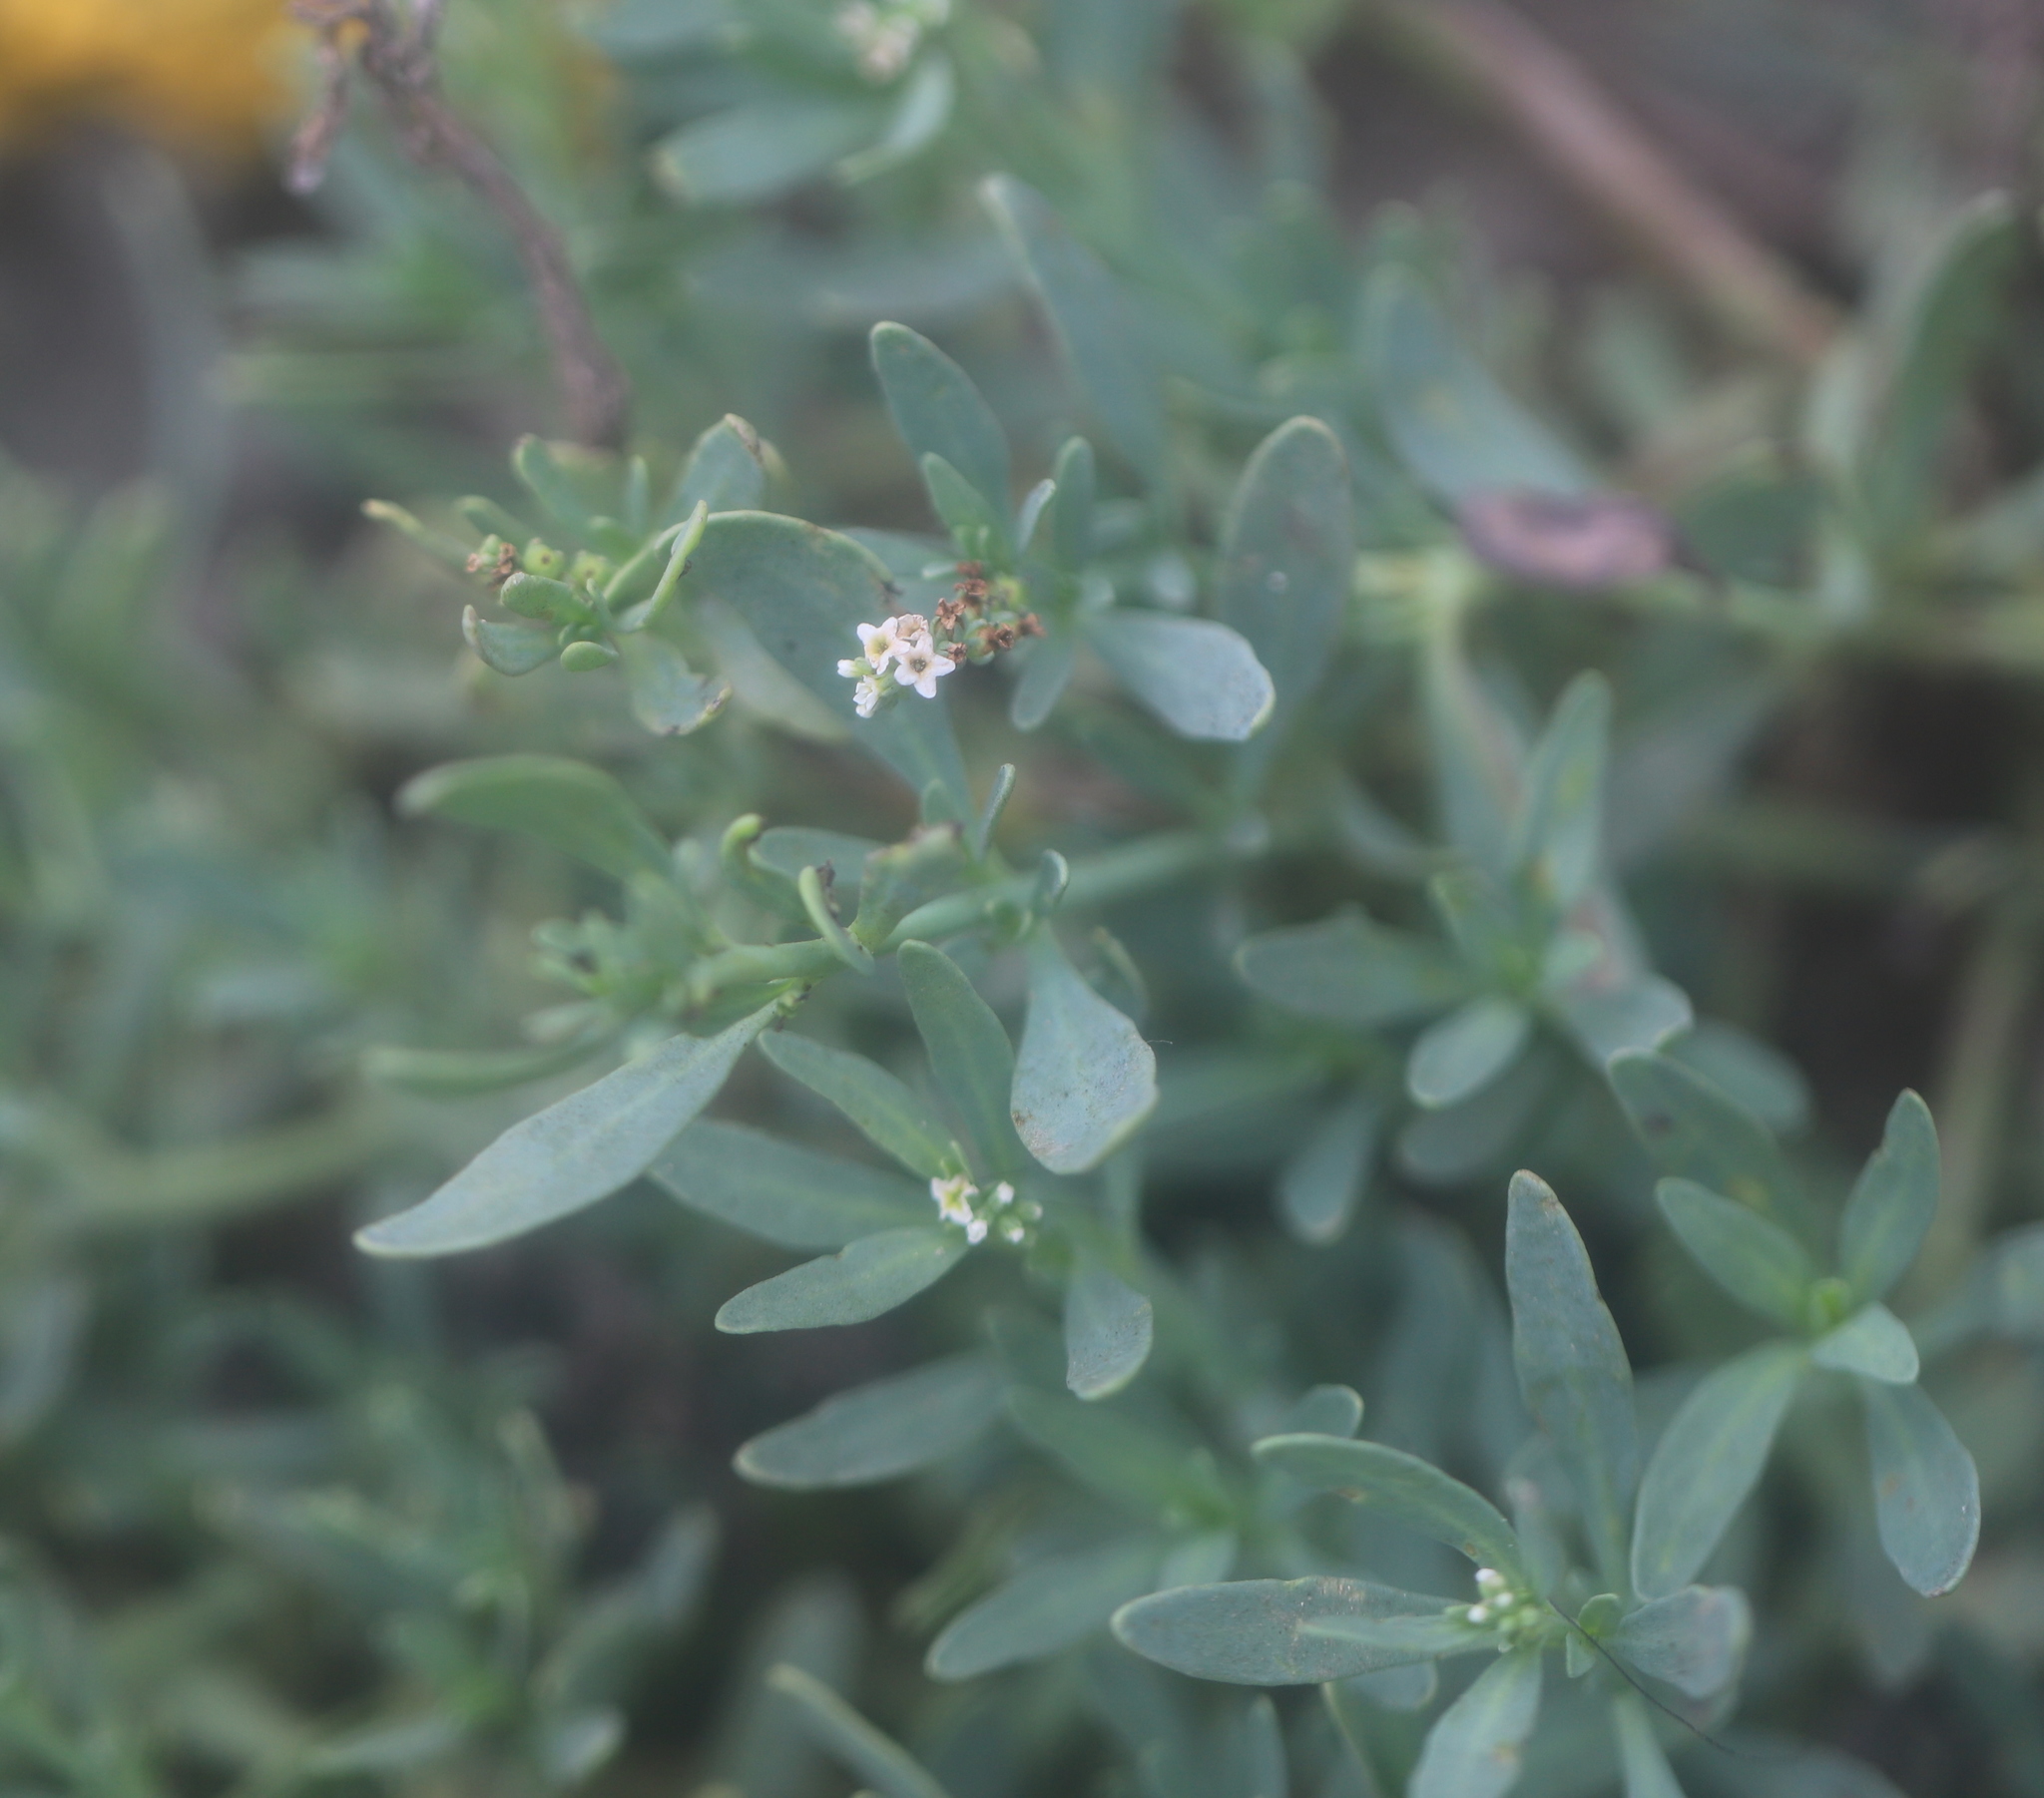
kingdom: Plantae
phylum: Tracheophyta
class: Magnoliopsida
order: Boraginales
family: Heliotropiaceae
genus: Heliotropium
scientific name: Heliotropium curassavicum
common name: Seaside heliotrope
